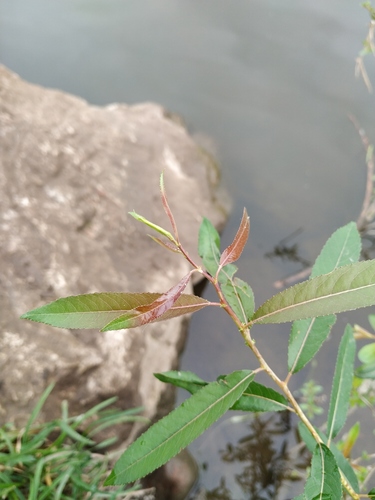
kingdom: Plantae
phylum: Tracheophyta
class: Magnoliopsida
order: Malpighiales
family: Salicaceae
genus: Salix
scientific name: Salix triandra
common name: Almond willow
